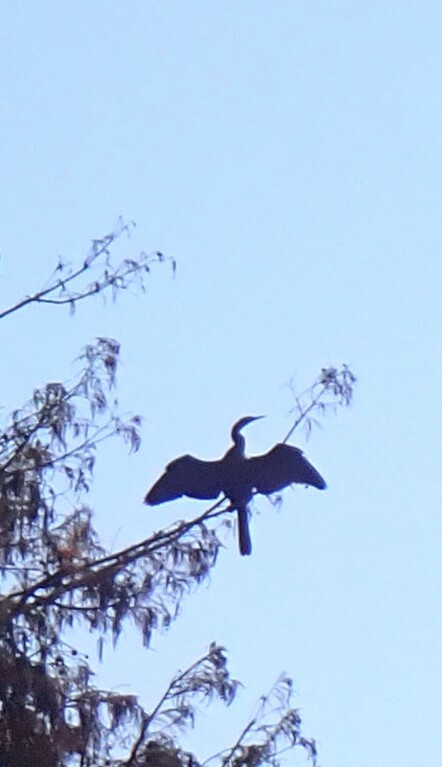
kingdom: Animalia
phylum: Chordata
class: Aves
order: Suliformes
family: Anhingidae
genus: Anhinga
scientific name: Anhinga anhinga
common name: Anhinga
